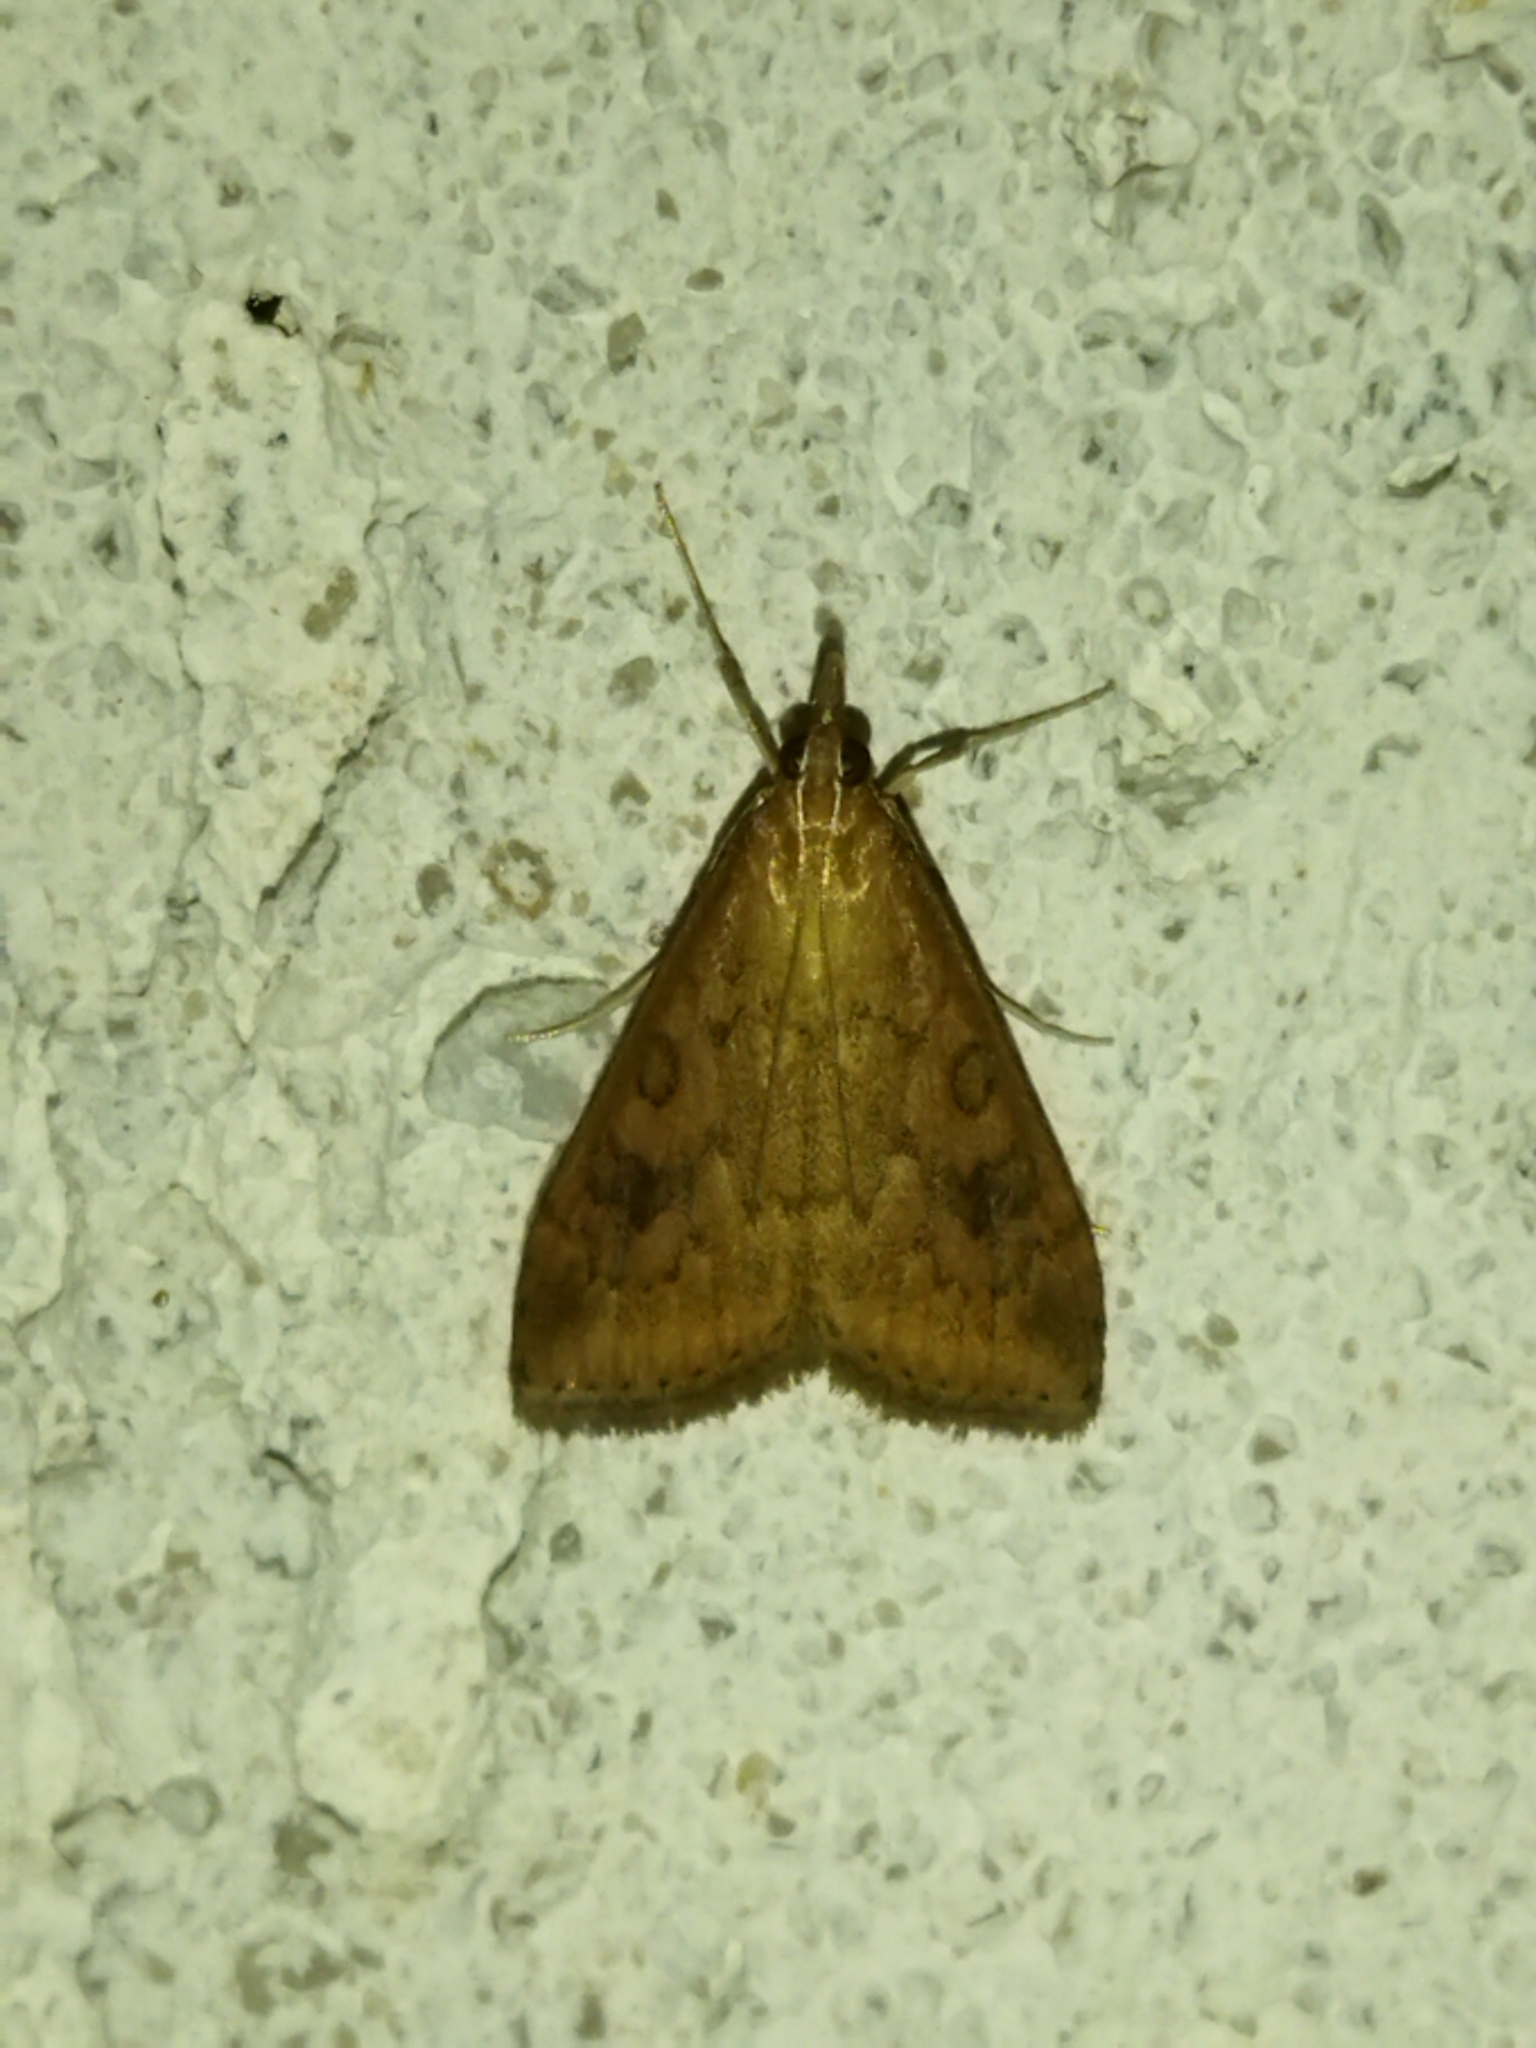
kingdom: Animalia
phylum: Arthropoda
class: Insecta
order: Lepidoptera
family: Crambidae
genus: Udea
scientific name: Udea ferrugalis
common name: Rusty dot
